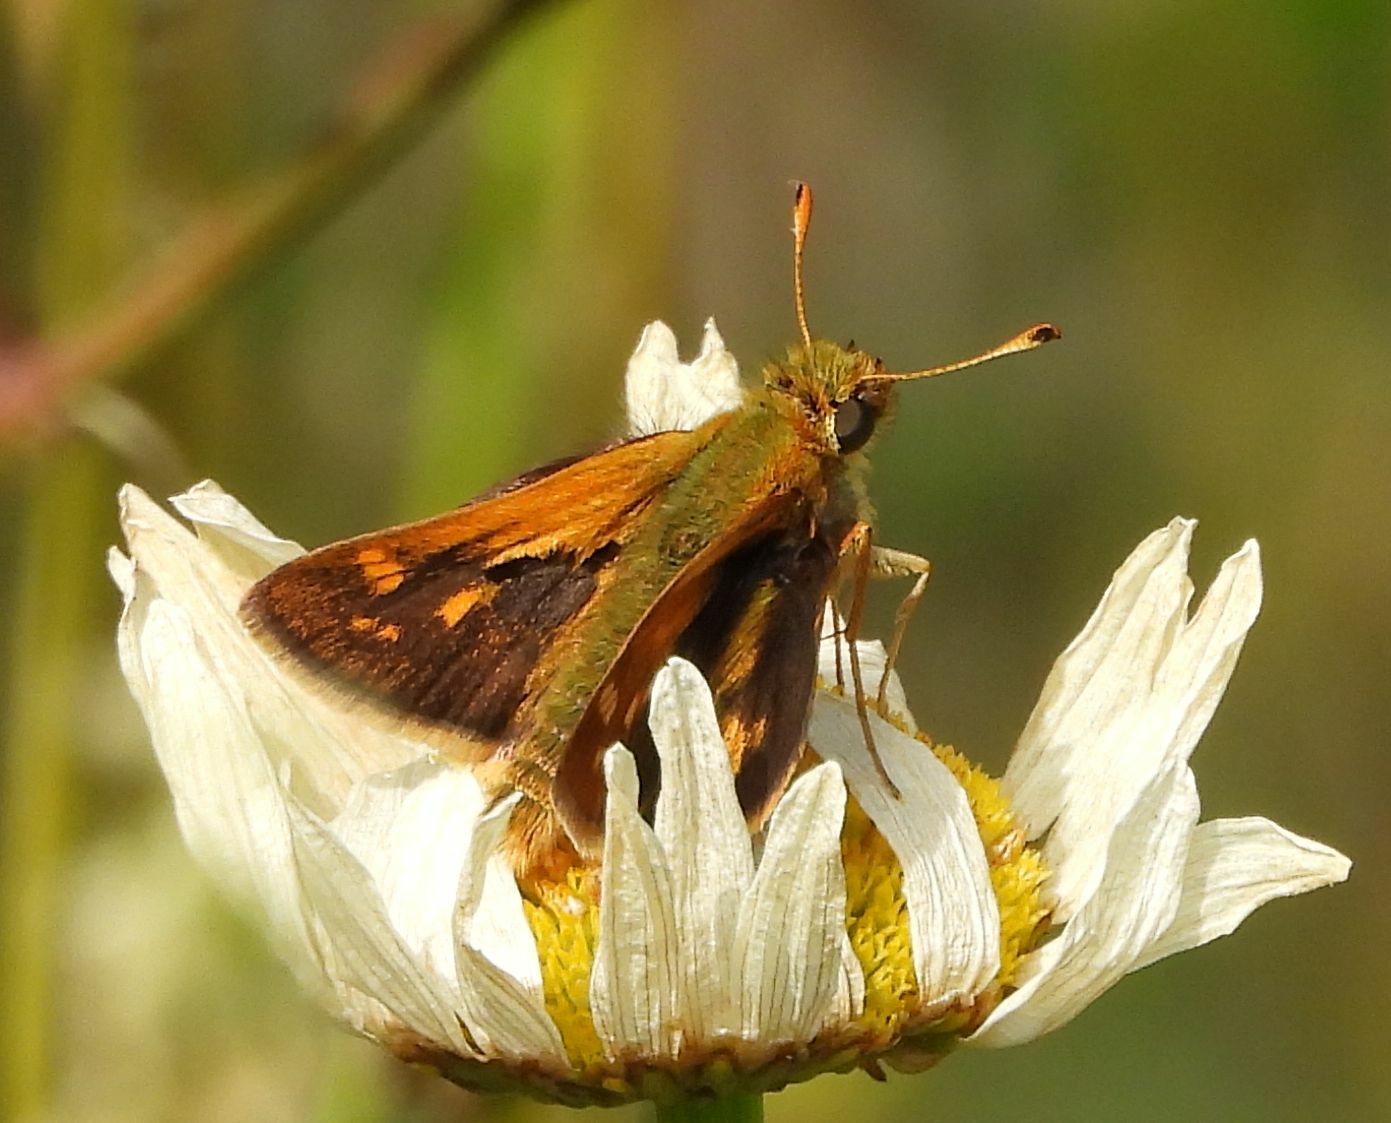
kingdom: Animalia
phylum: Arthropoda
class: Insecta
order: Lepidoptera
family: Hesperiidae
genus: Polites
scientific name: Polites coras
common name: Peck's skipper
